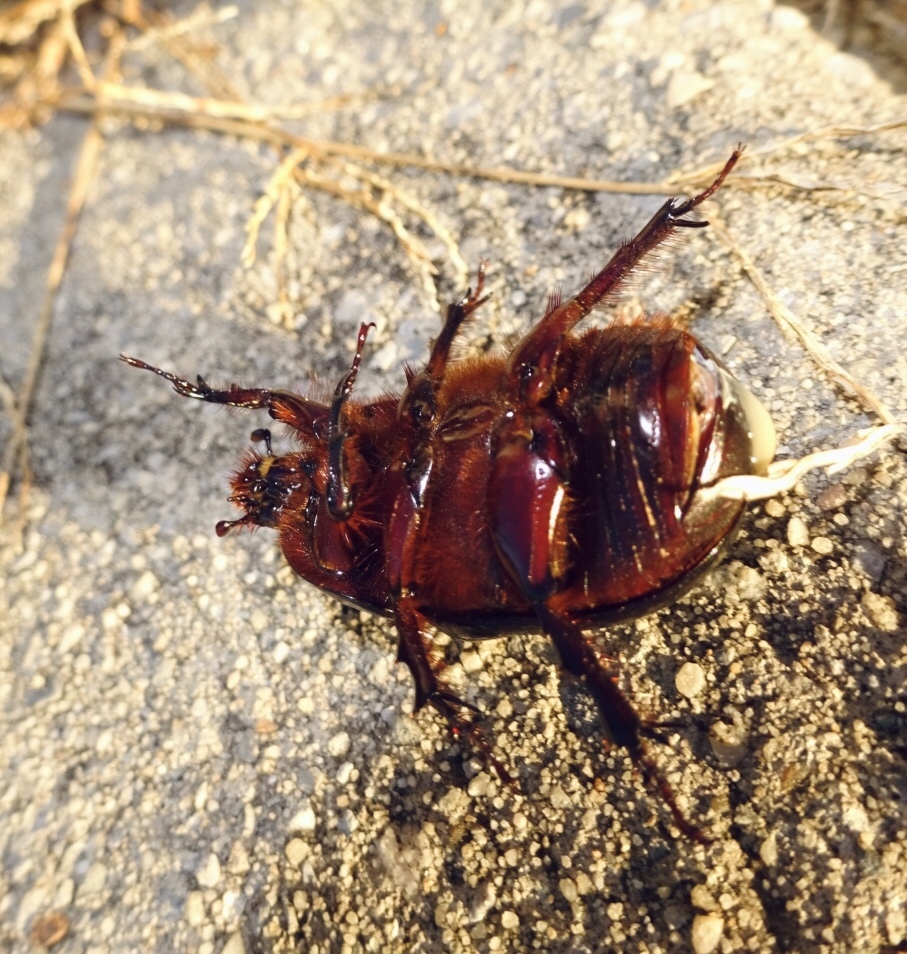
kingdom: Animalia
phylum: Arthropoda
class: Insecta
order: Coleoptera
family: Scarabaeidae
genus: Xyloryctes
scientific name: Xyloryctes jamaicensis
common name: Eastern rhinoceros beetle
